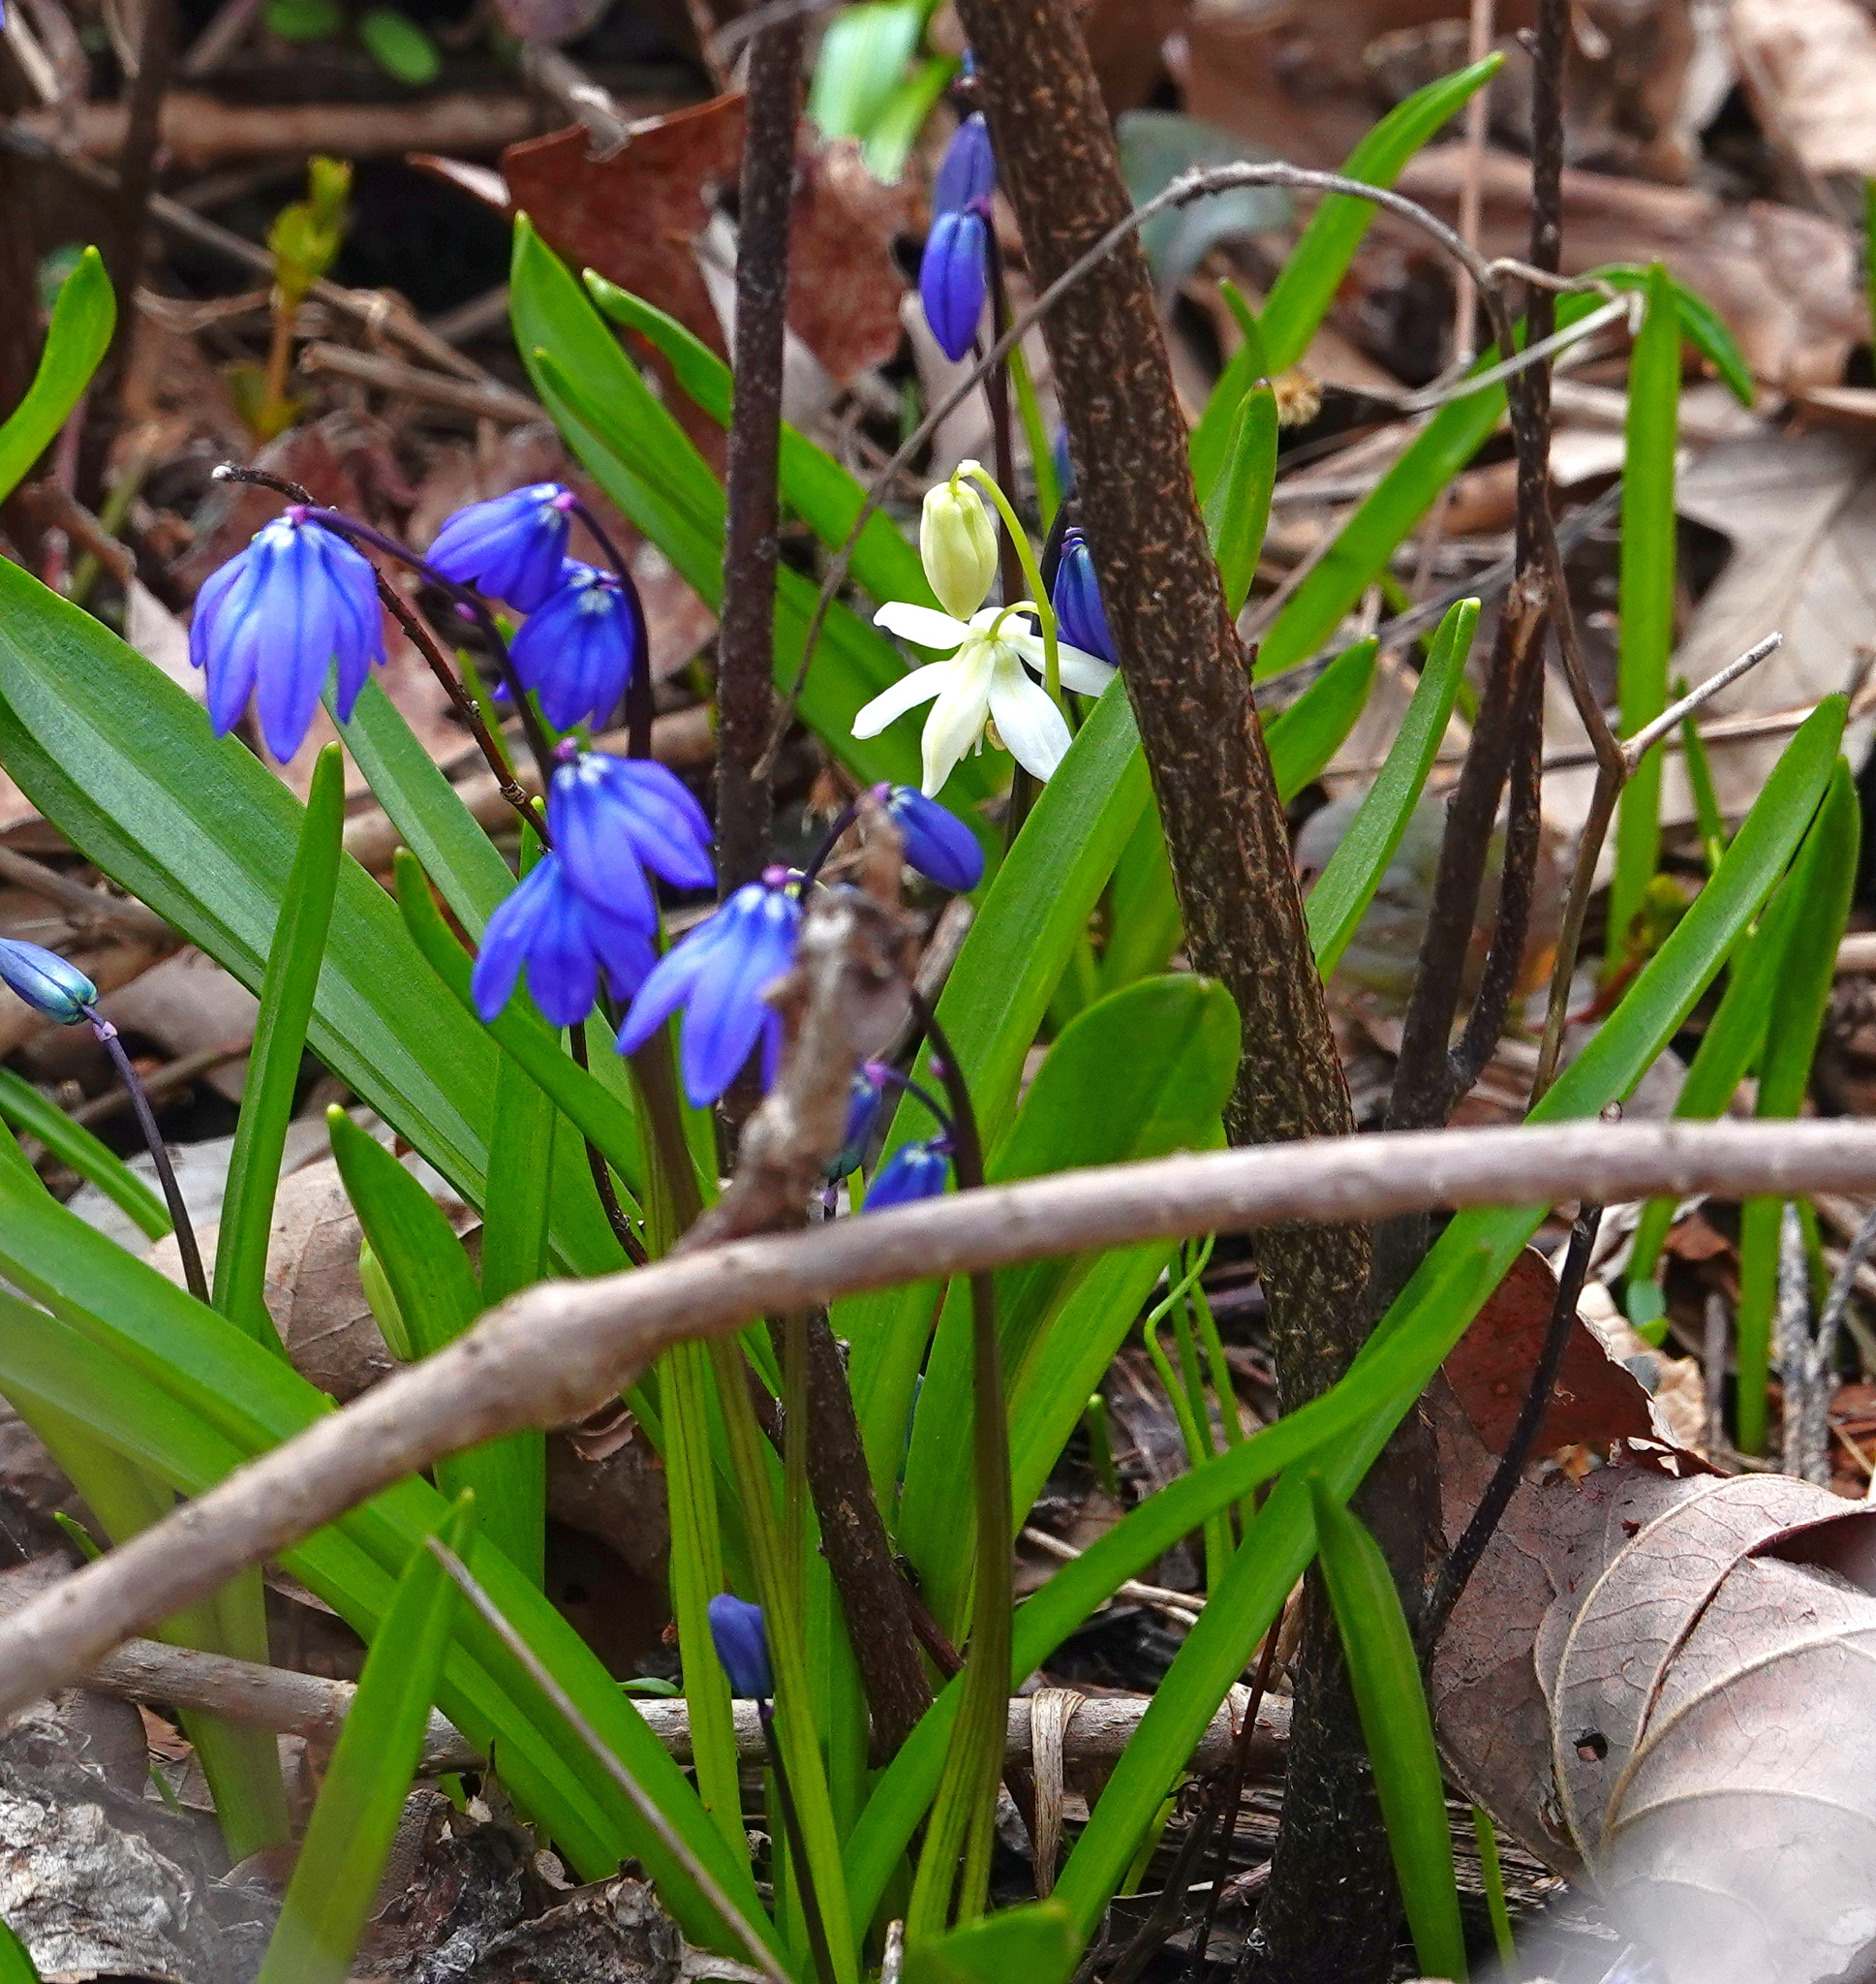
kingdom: Plantae
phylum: Tracheophyta
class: Liliopsida
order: Asparagales
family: Asparagaceae
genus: Scilla
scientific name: Scilla siberica
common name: Siberian squill
